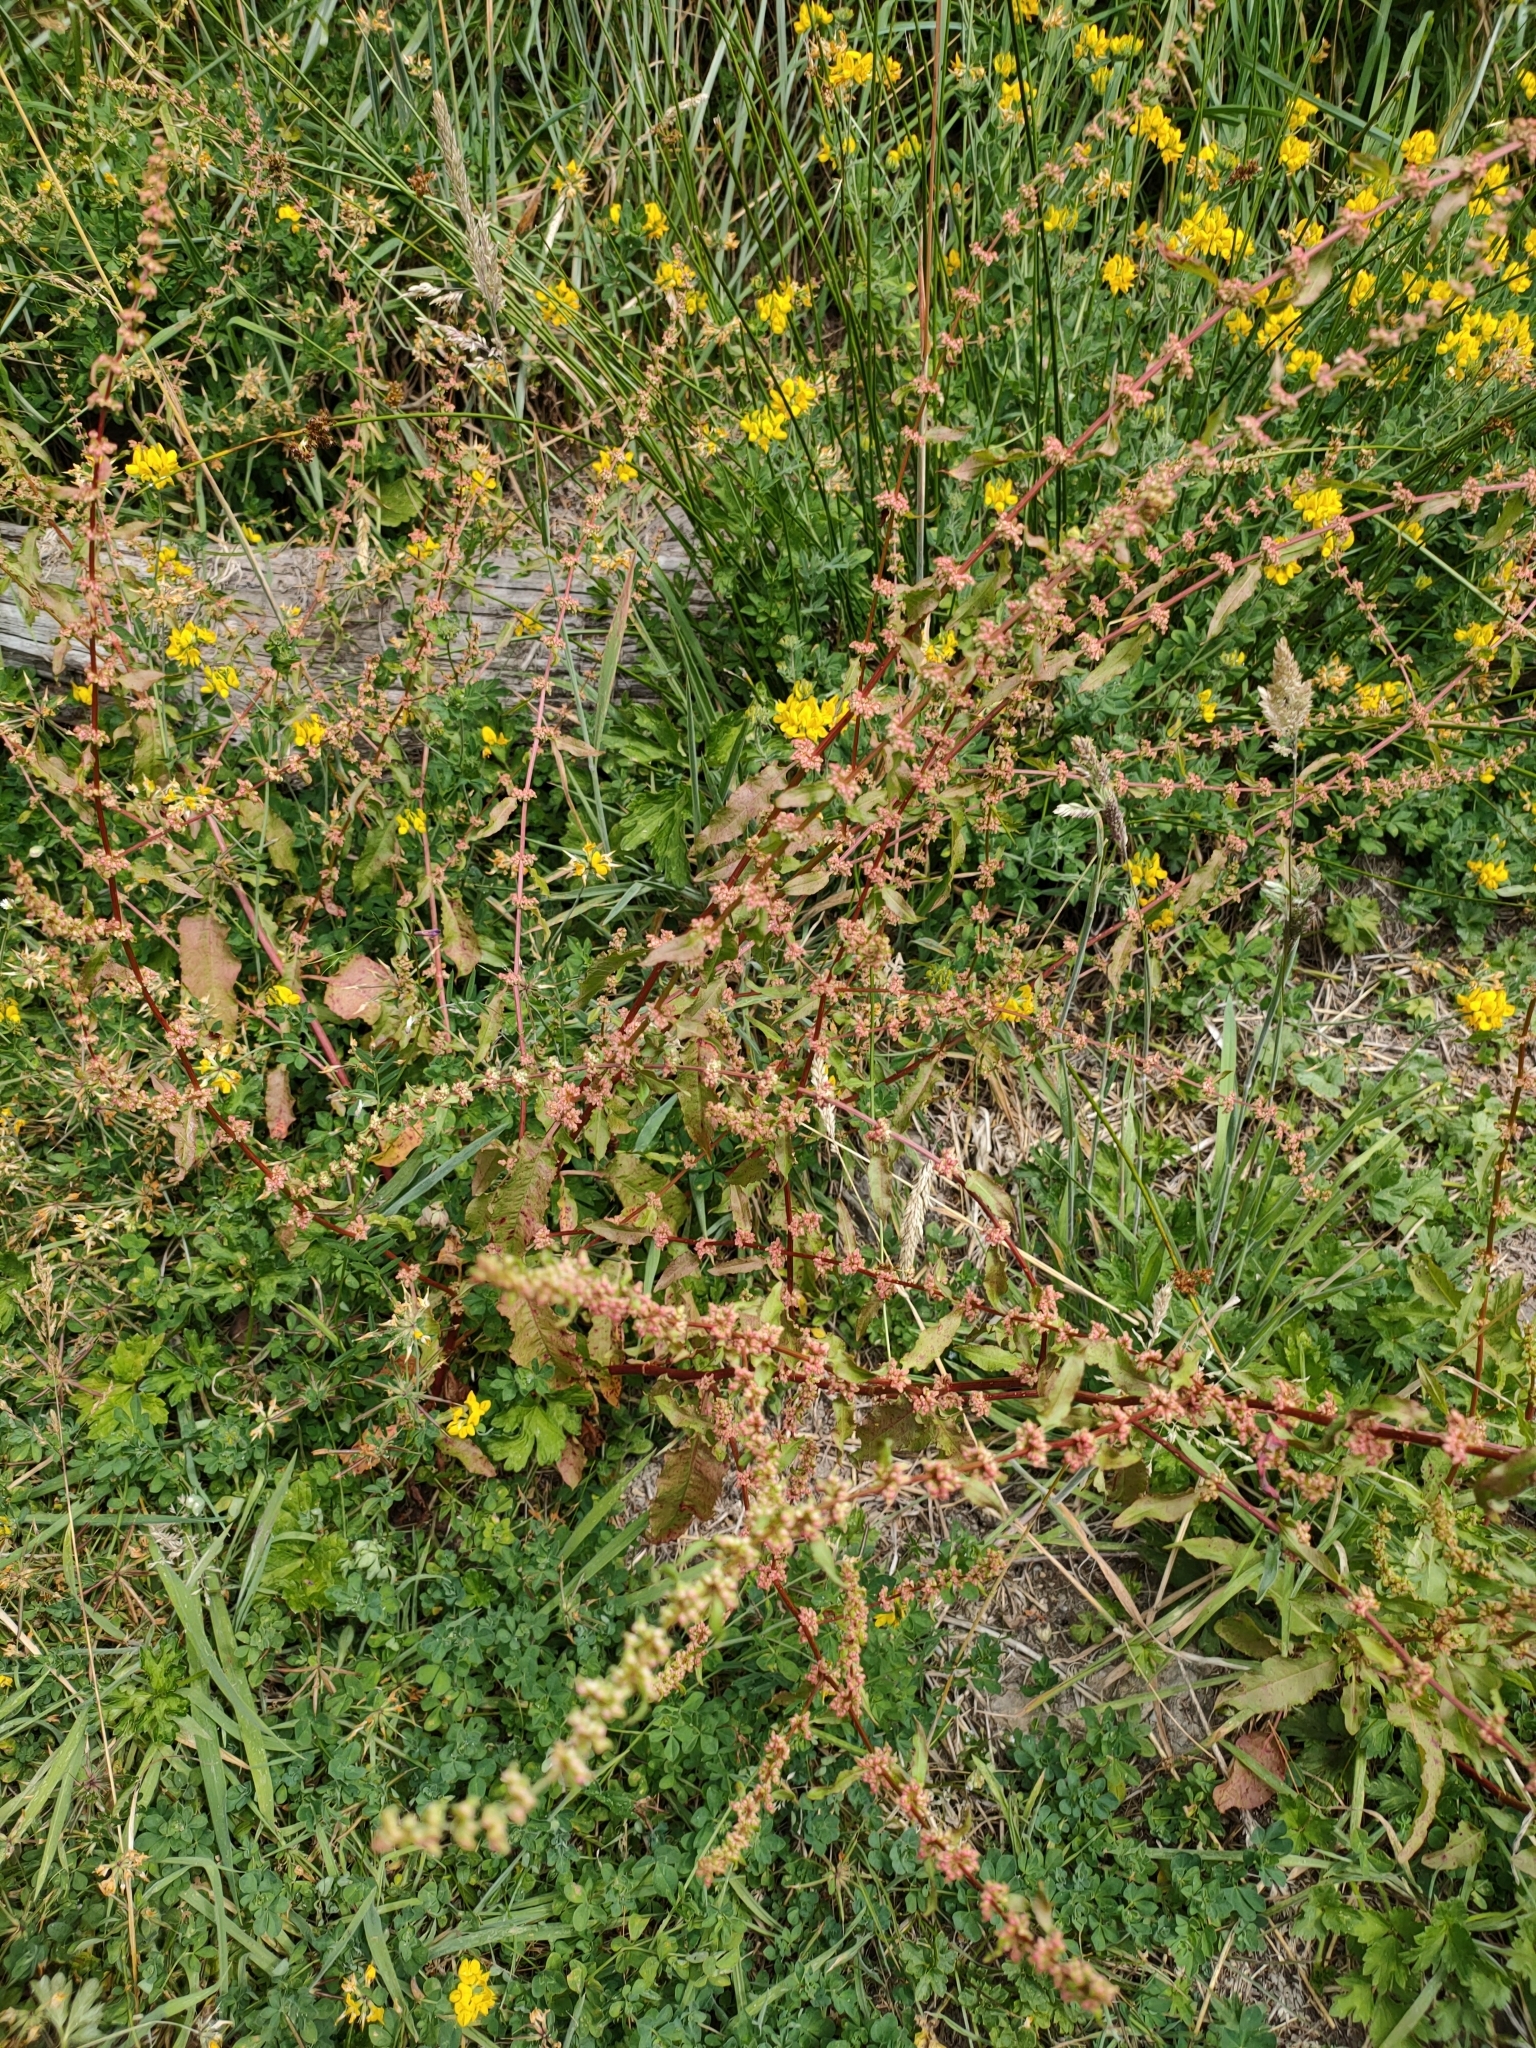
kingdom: Plantae
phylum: Tracheophyta
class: Magnoliopsida
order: Caryophyllales
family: Polygonaceae
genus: Rumex
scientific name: Rumex conglomeratus
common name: Clustered dock
